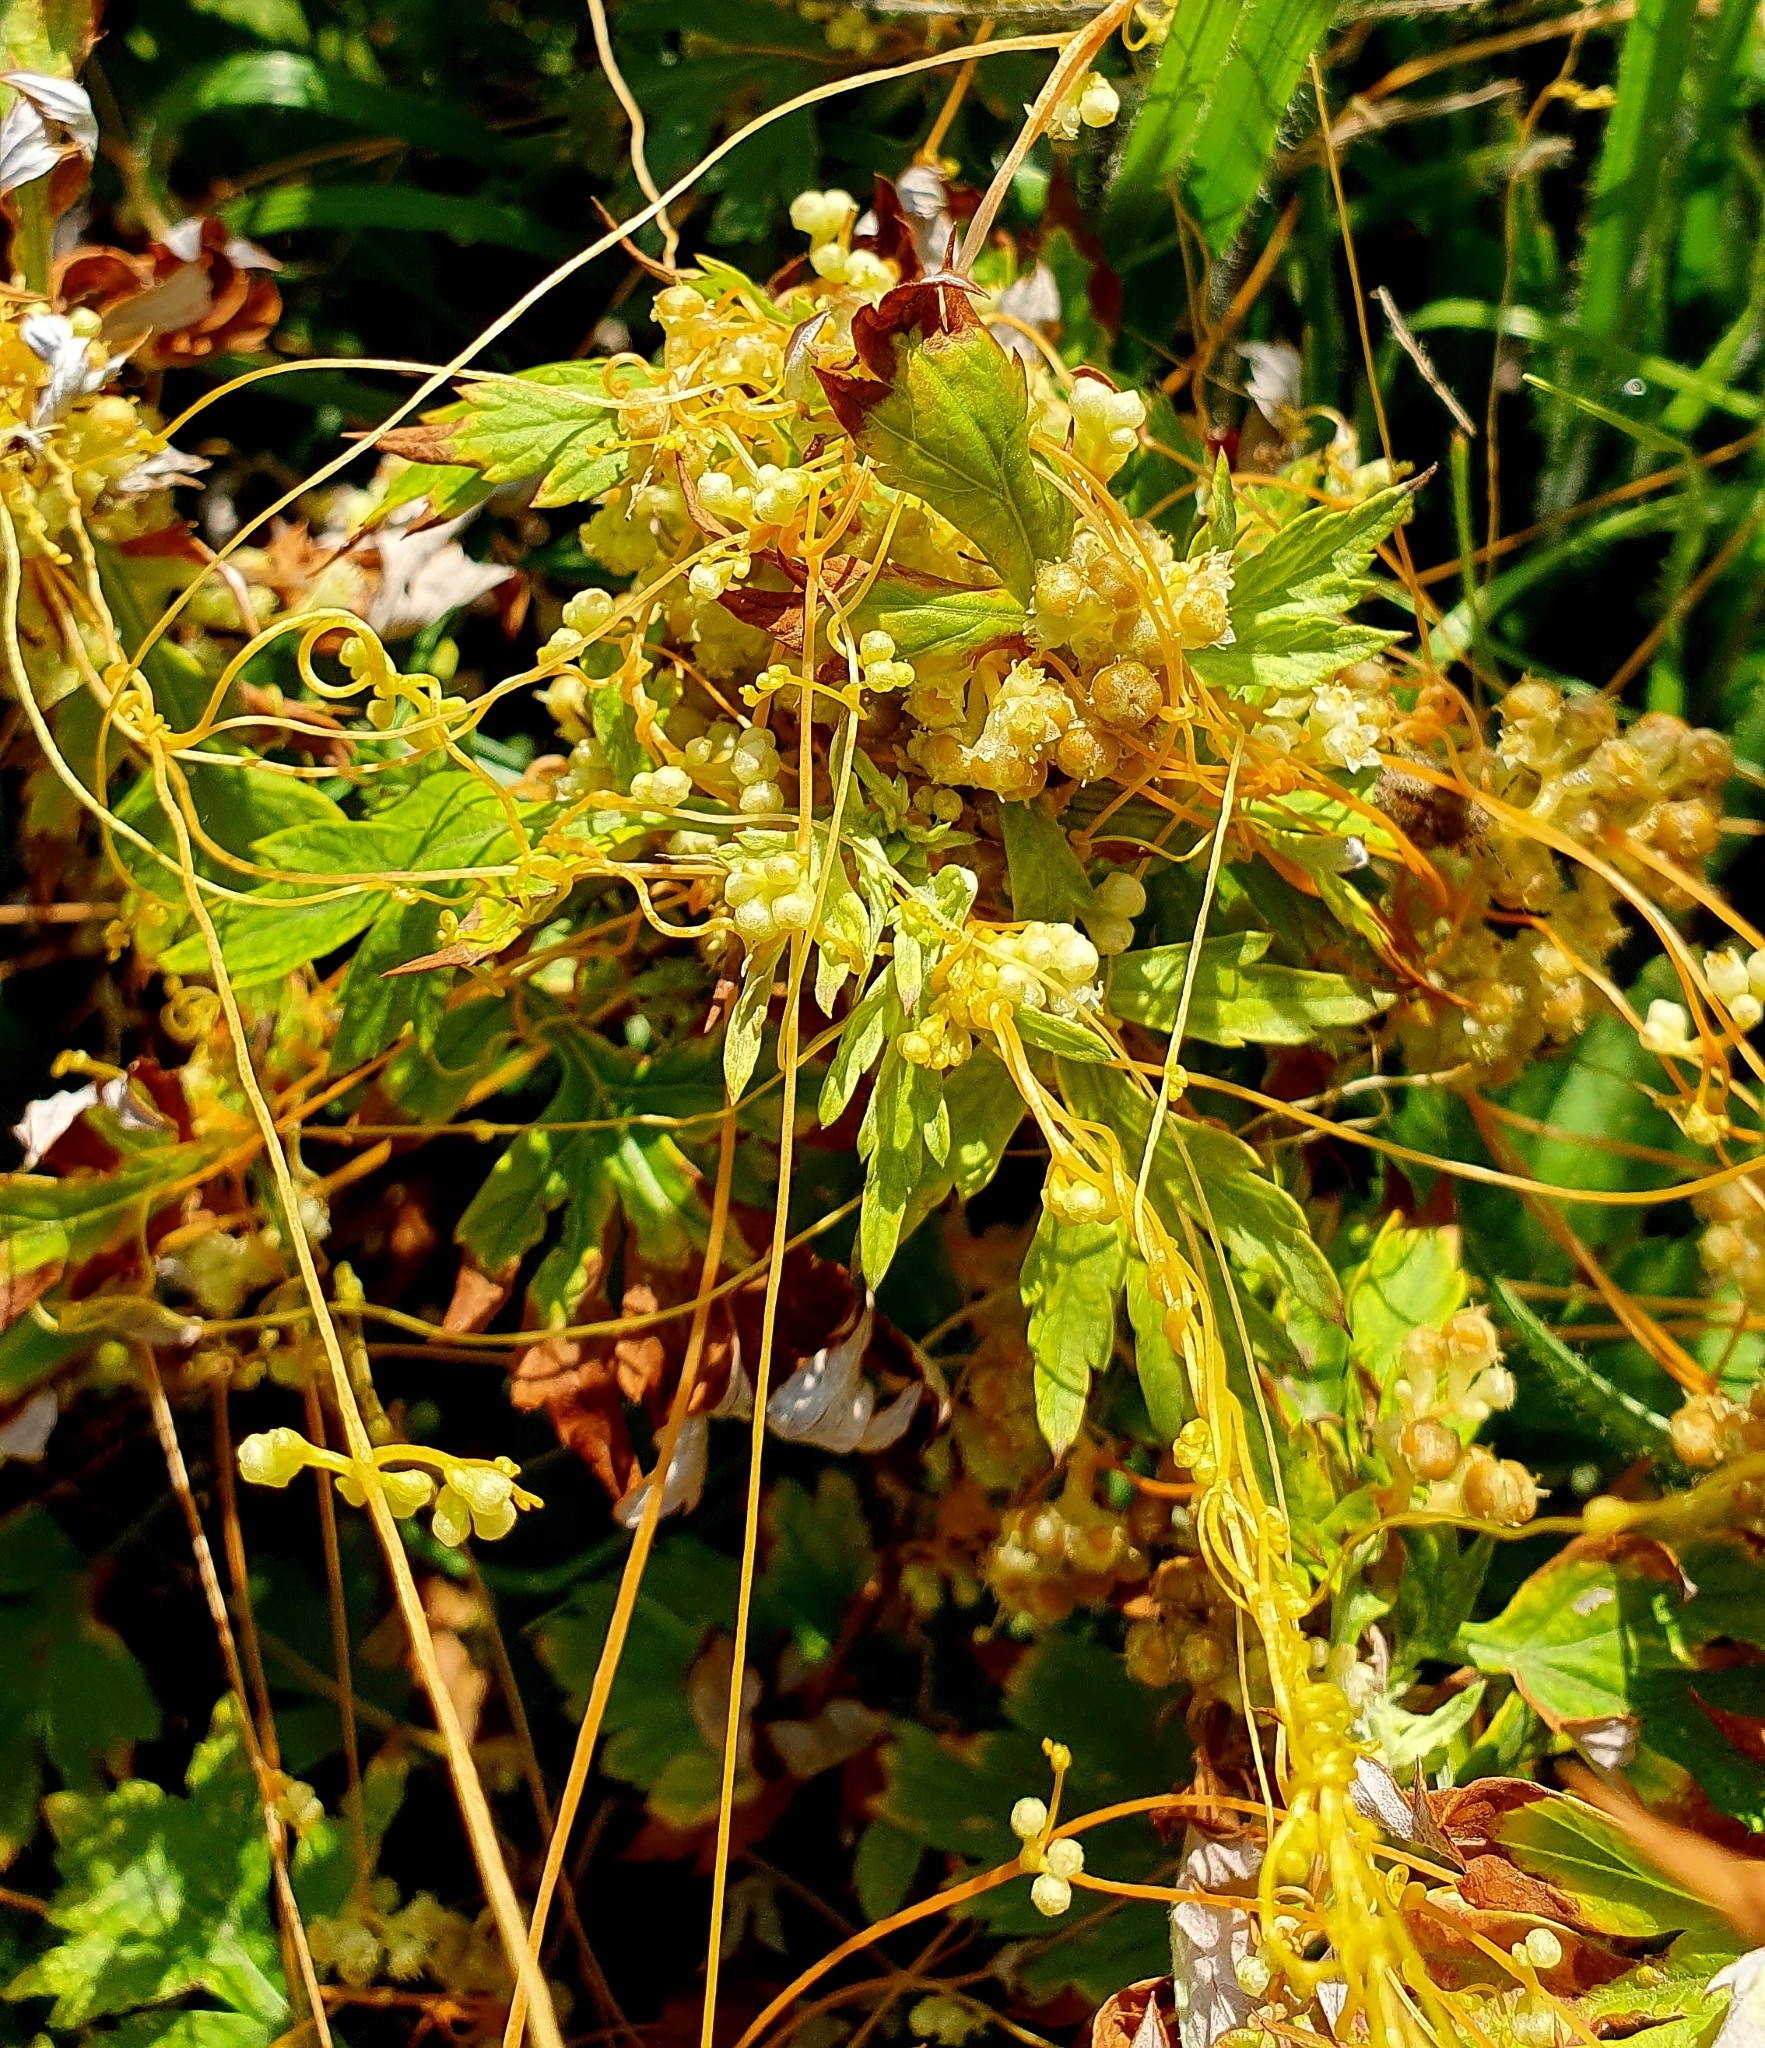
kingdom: Plantae
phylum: Tracheophyta
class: Magnoliopsida
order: Solanales
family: Convolvulaceae
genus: Cuscuta
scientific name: Cuscuta campestris
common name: Yellow dodder
